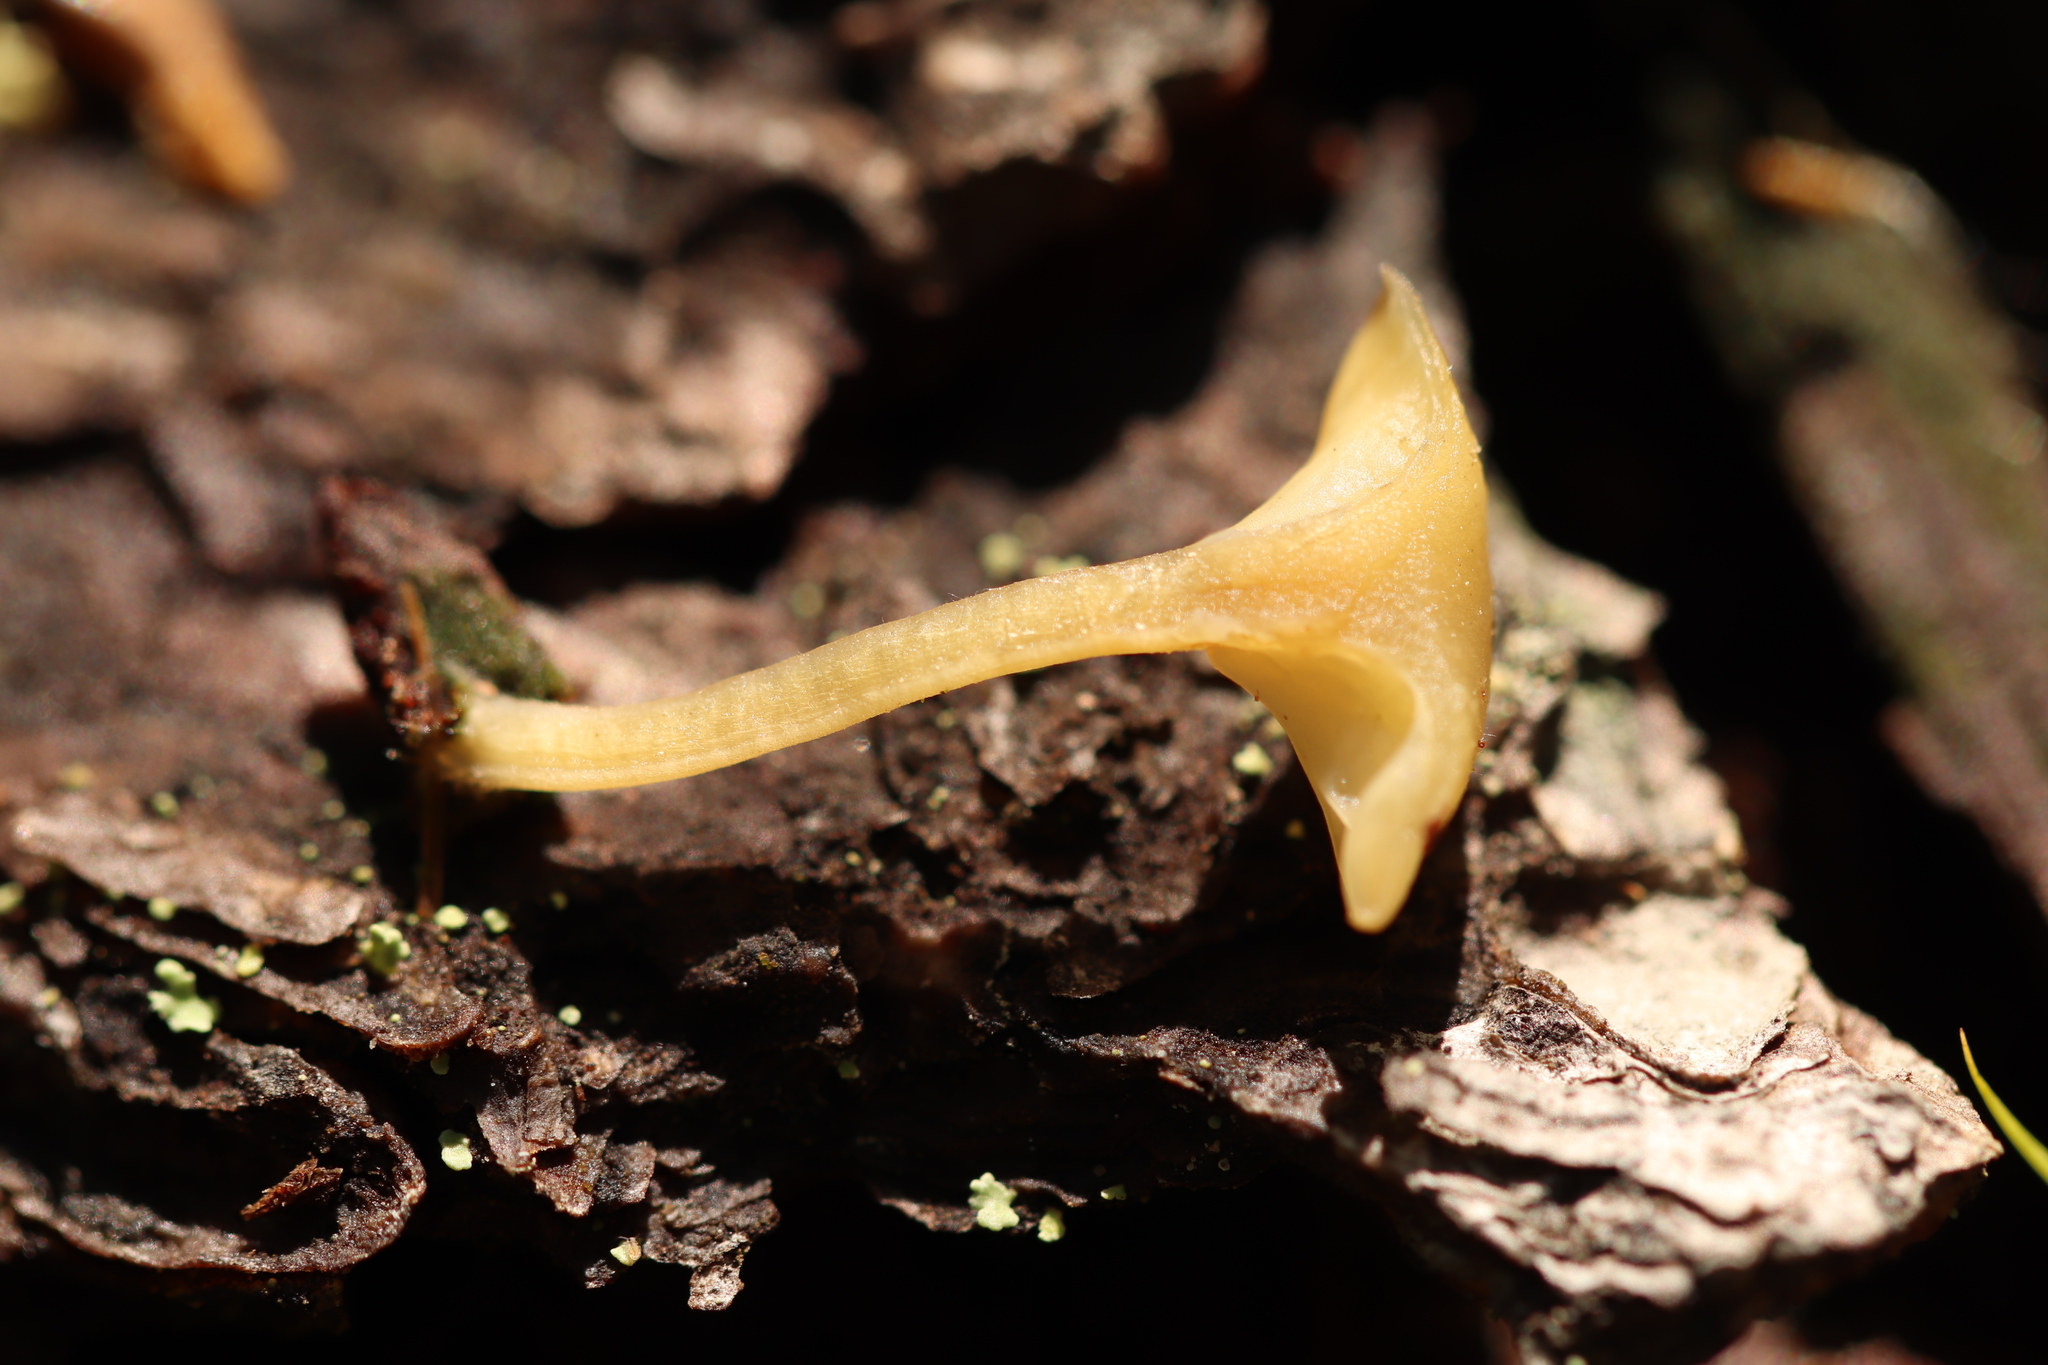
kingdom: Fungi
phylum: Basidiomycota
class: Agaricomycetes
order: Agaricales
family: Hygrophoraceae
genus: Lichenomphalia
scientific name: Lichenomphalia
